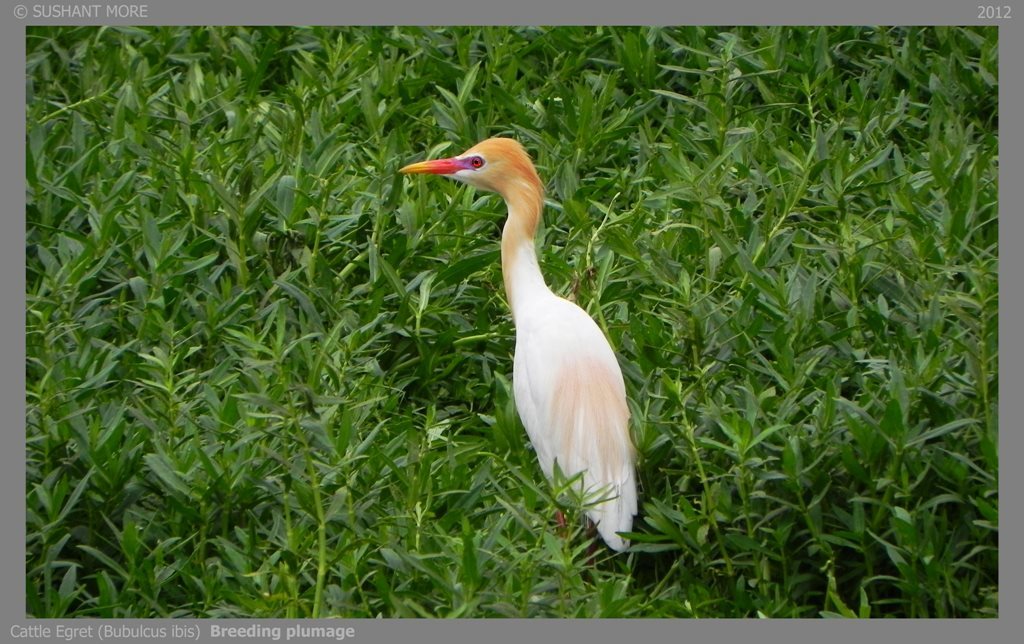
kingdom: Animalia
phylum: Chordata
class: Aves
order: Pelecaniformes
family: Ardeidae
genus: Bubulcus
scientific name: Bubulcus coromandus
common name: Eastern cattle egret
